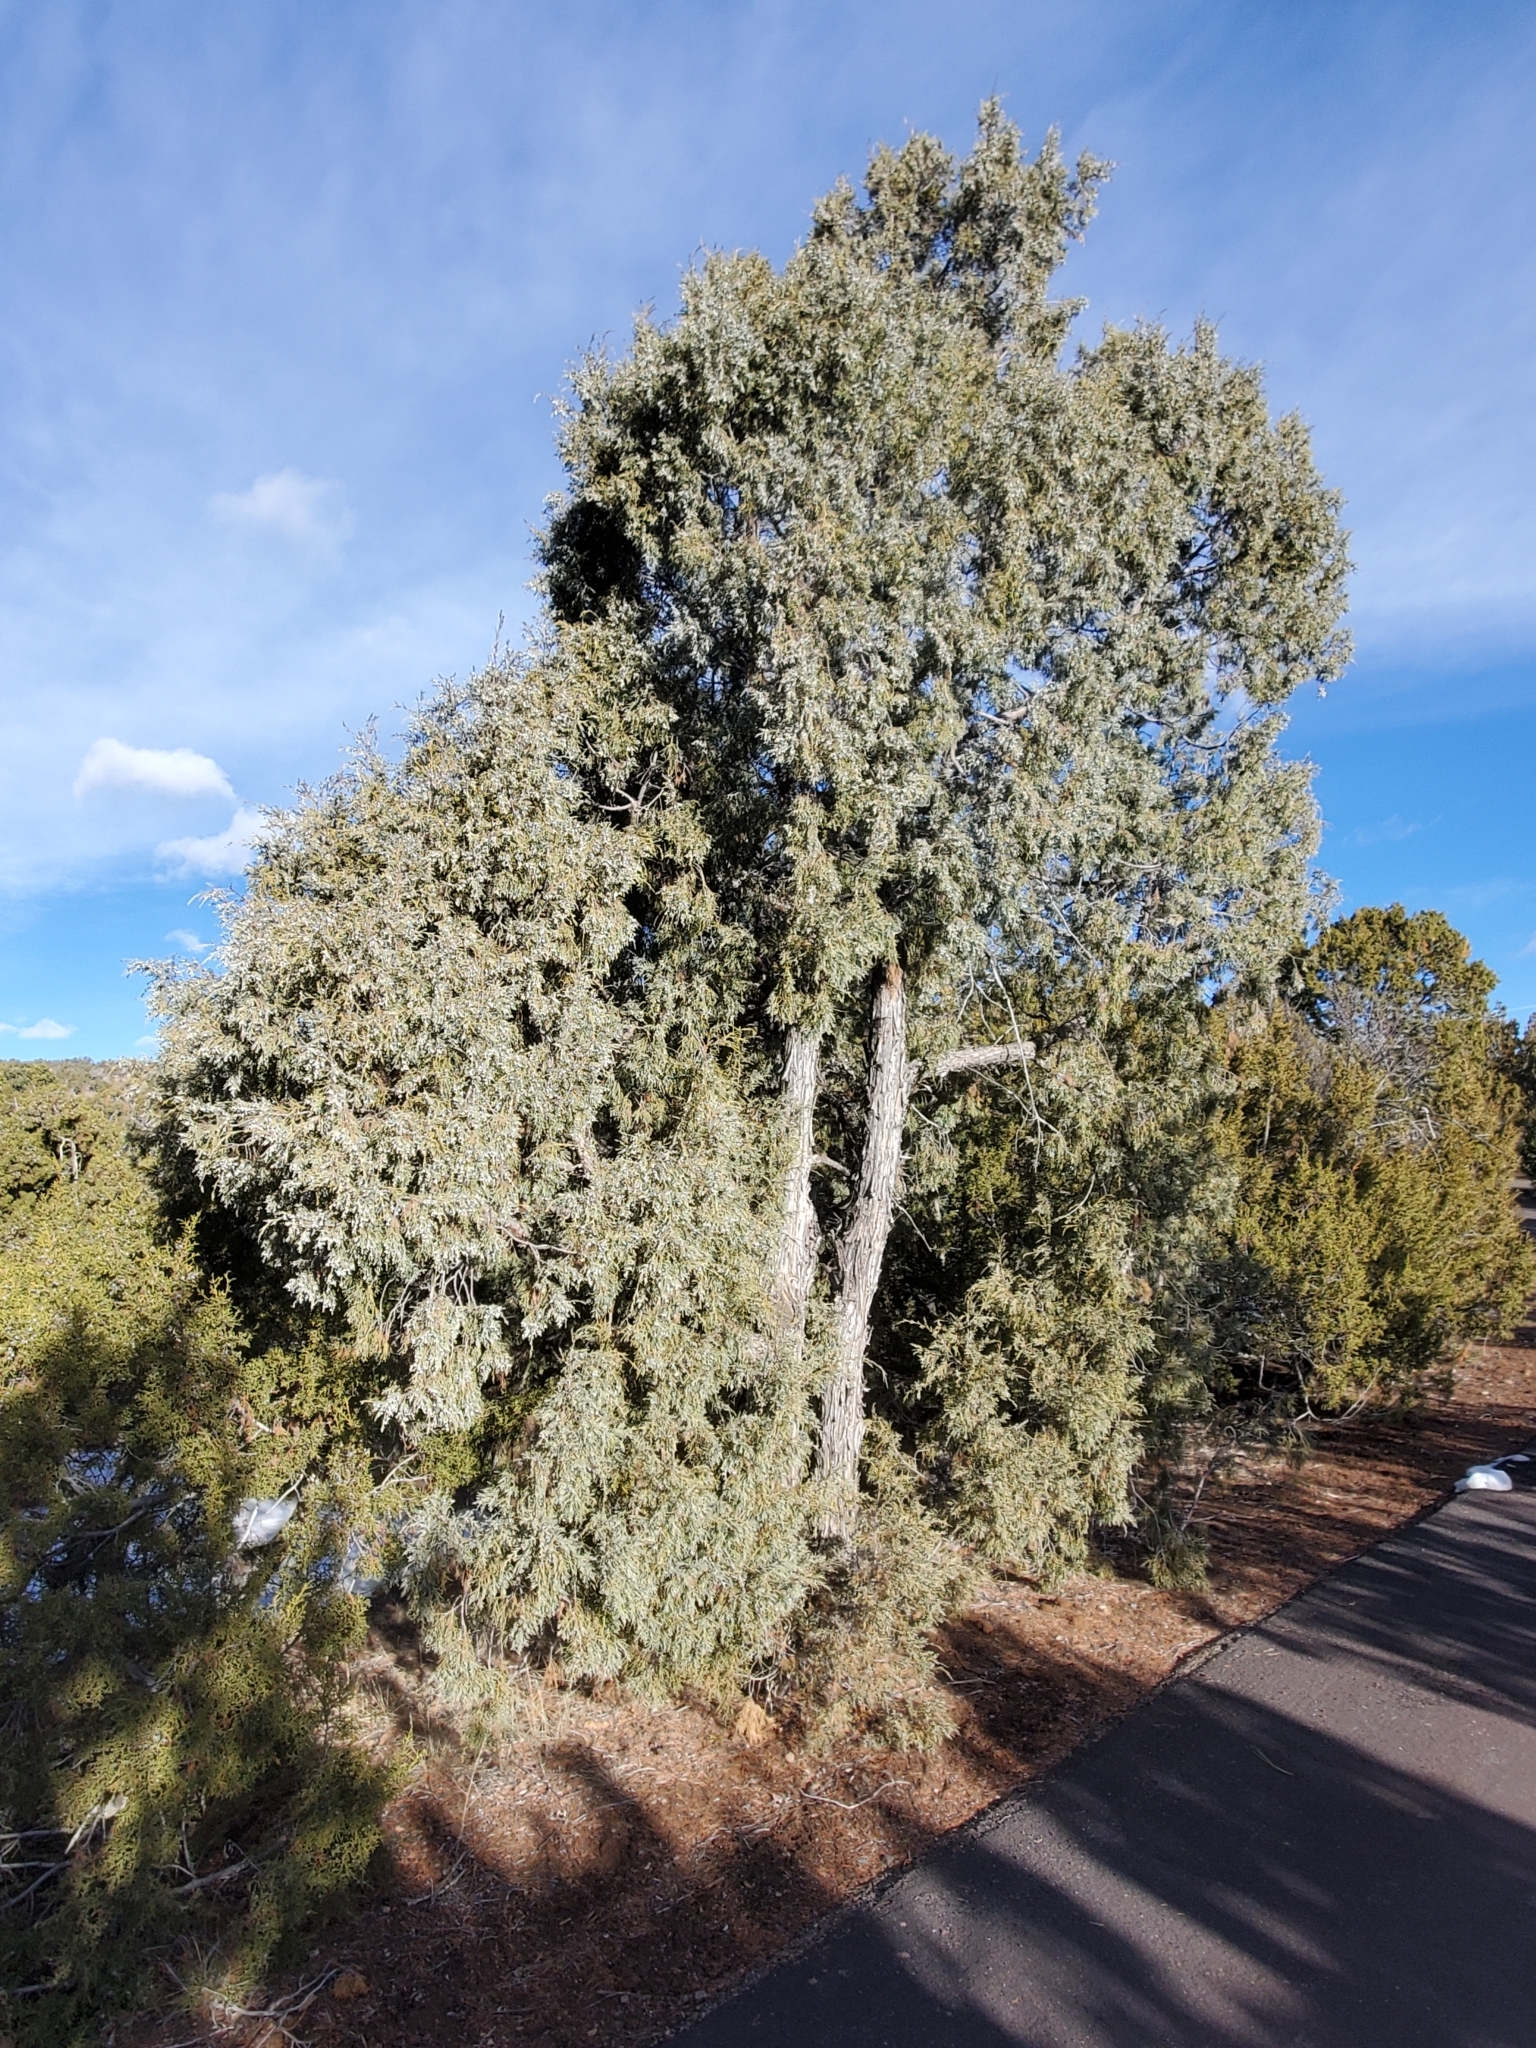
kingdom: Plantae
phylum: Tracheophyta
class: Pinopsida
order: Pinales
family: Cupressaceae
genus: Juniperus
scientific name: Juniperus scopulorum
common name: Rocky mountain juniper
